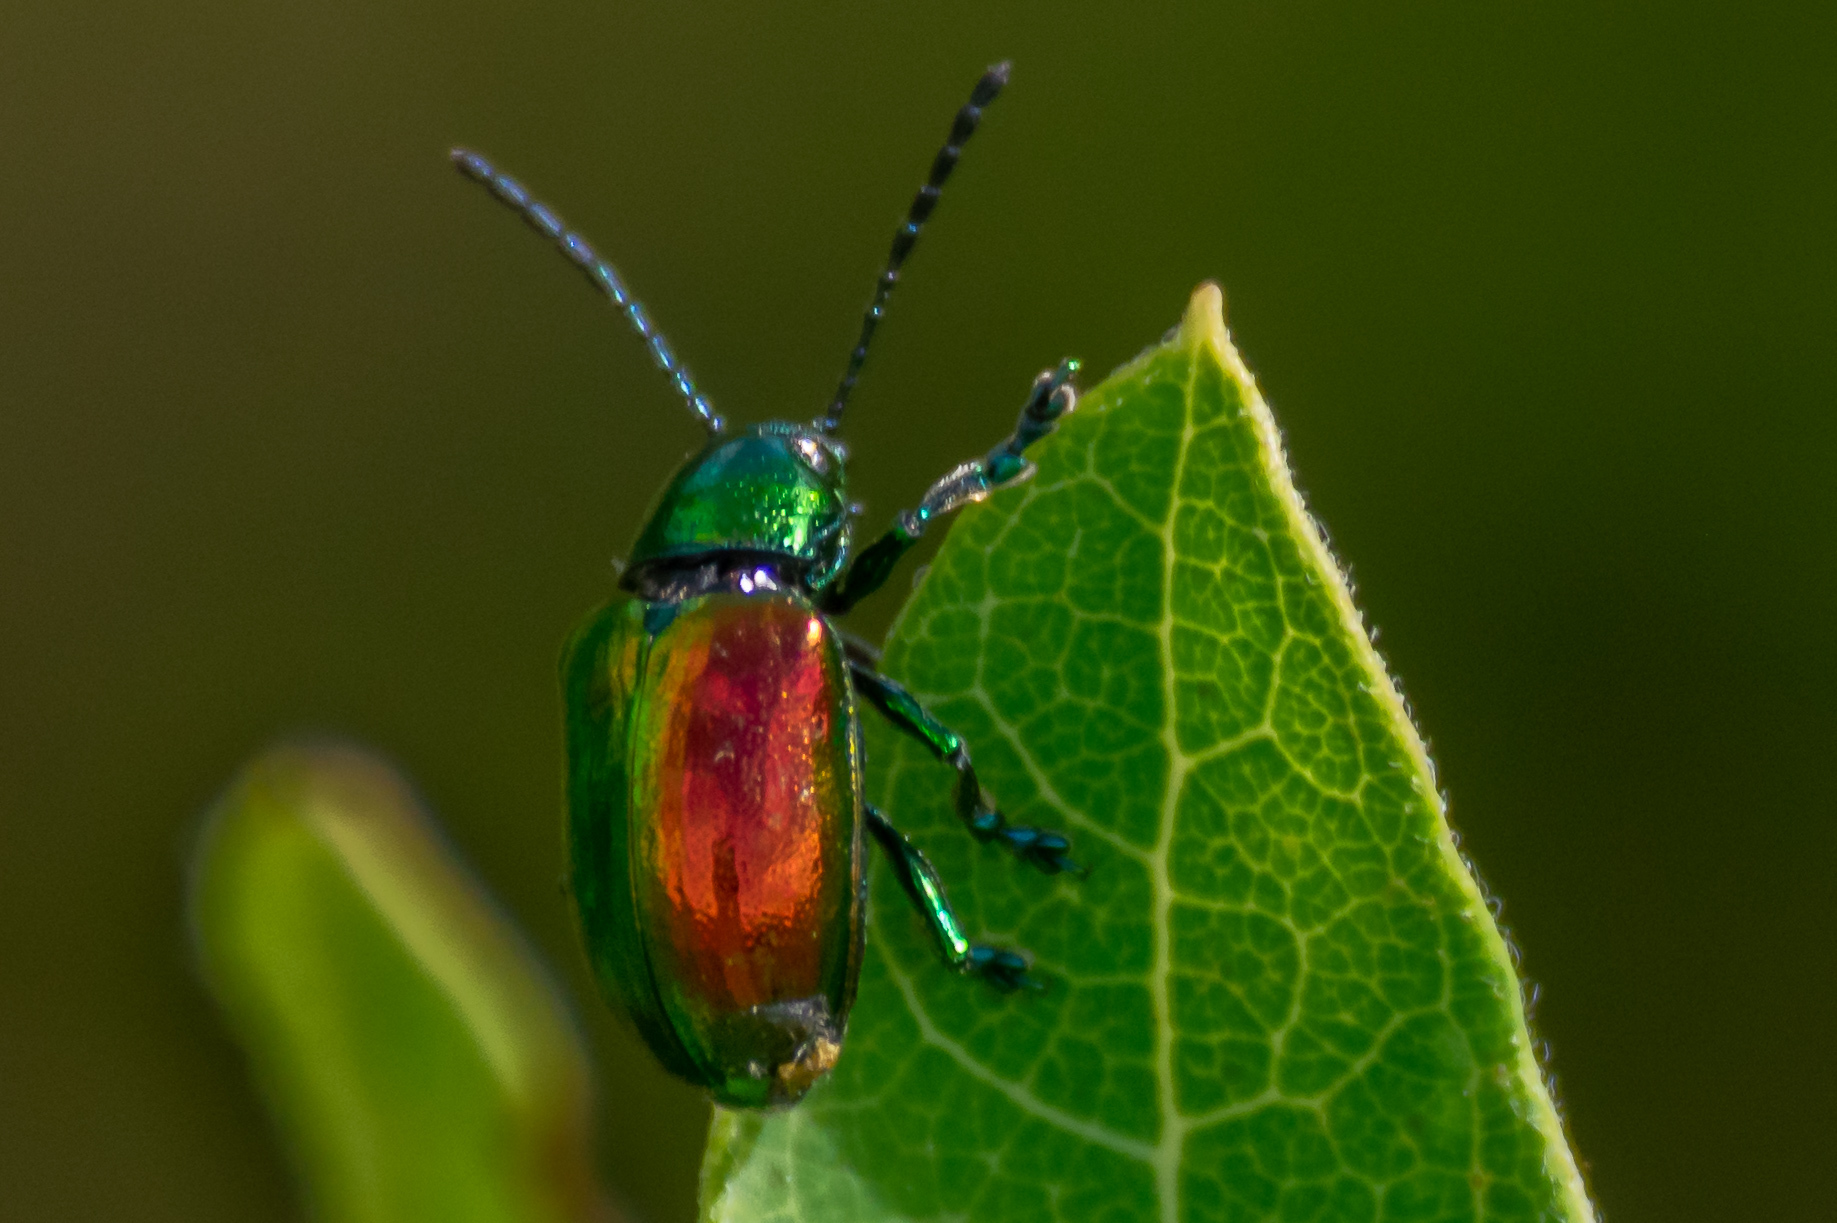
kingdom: Animalia
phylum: Arthropoda
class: Insecta
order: Coleoptera
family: Chrysomelidae
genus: Chrysochus
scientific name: Chrysochus auratus
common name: Dogbane leaf beetle
